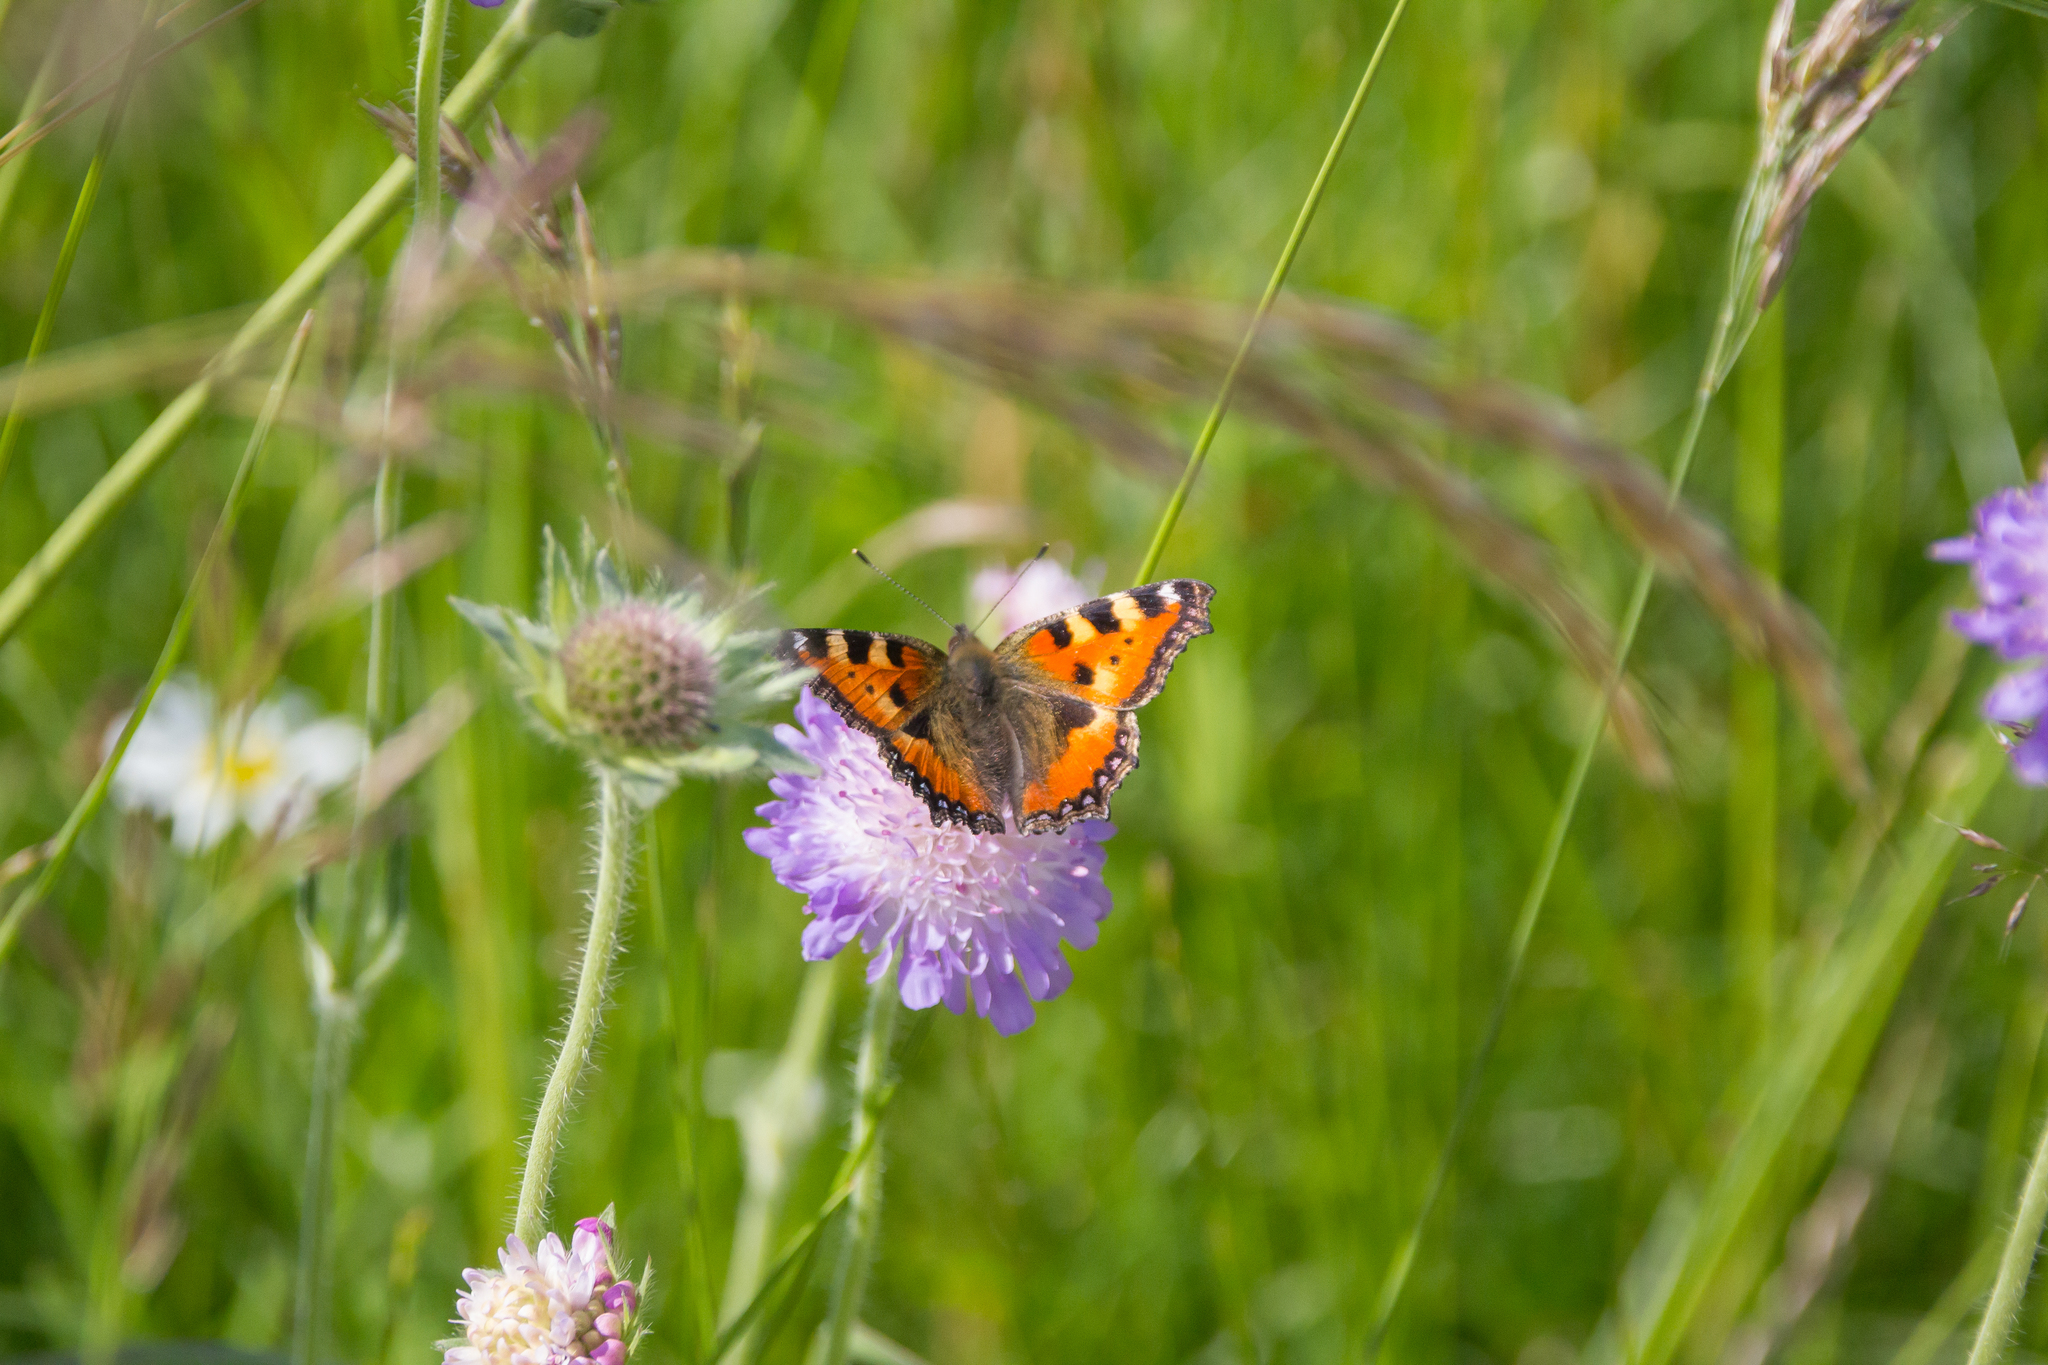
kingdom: Animalia
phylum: Arthropoda
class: Insecta
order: Lepidoptera
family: Nymphalidae
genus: Aglais
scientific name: Aglais urticae
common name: Small tortoiseshell
